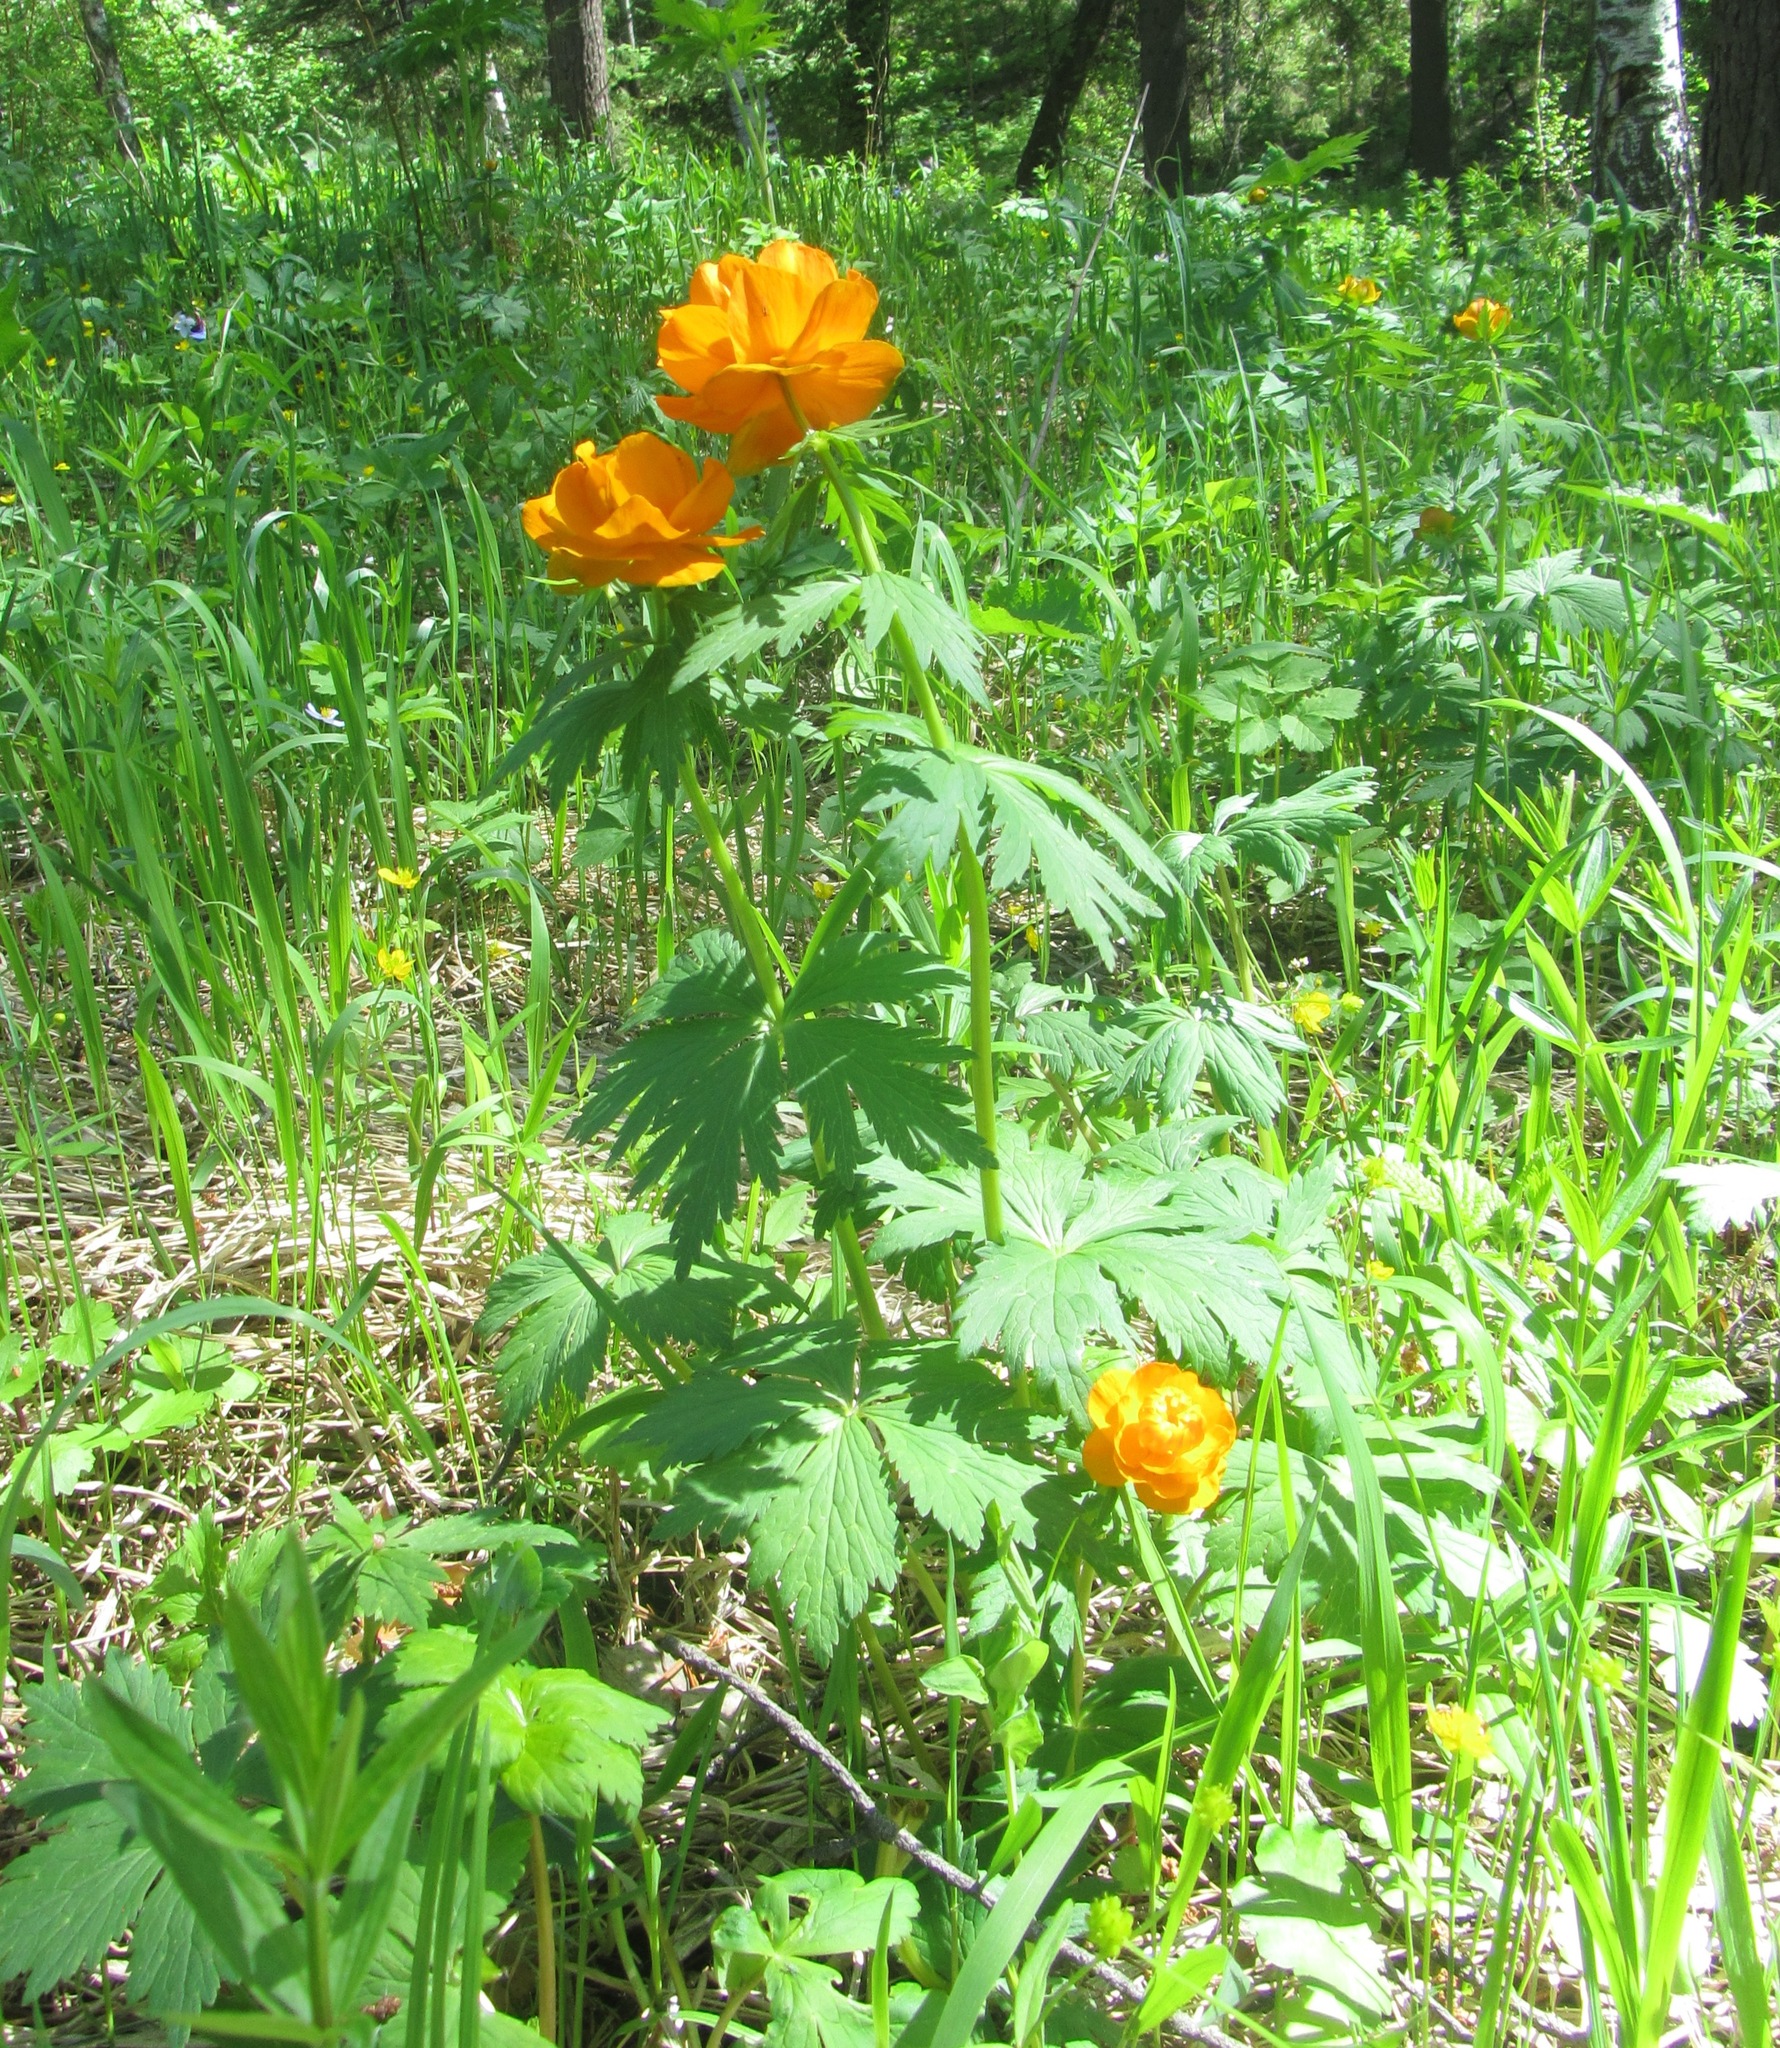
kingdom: Plantae
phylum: Tracheophyta
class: Magnoliopsida
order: Ranunculales
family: Ranunculaceae
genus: Trollius
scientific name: Trollius asiaticus
